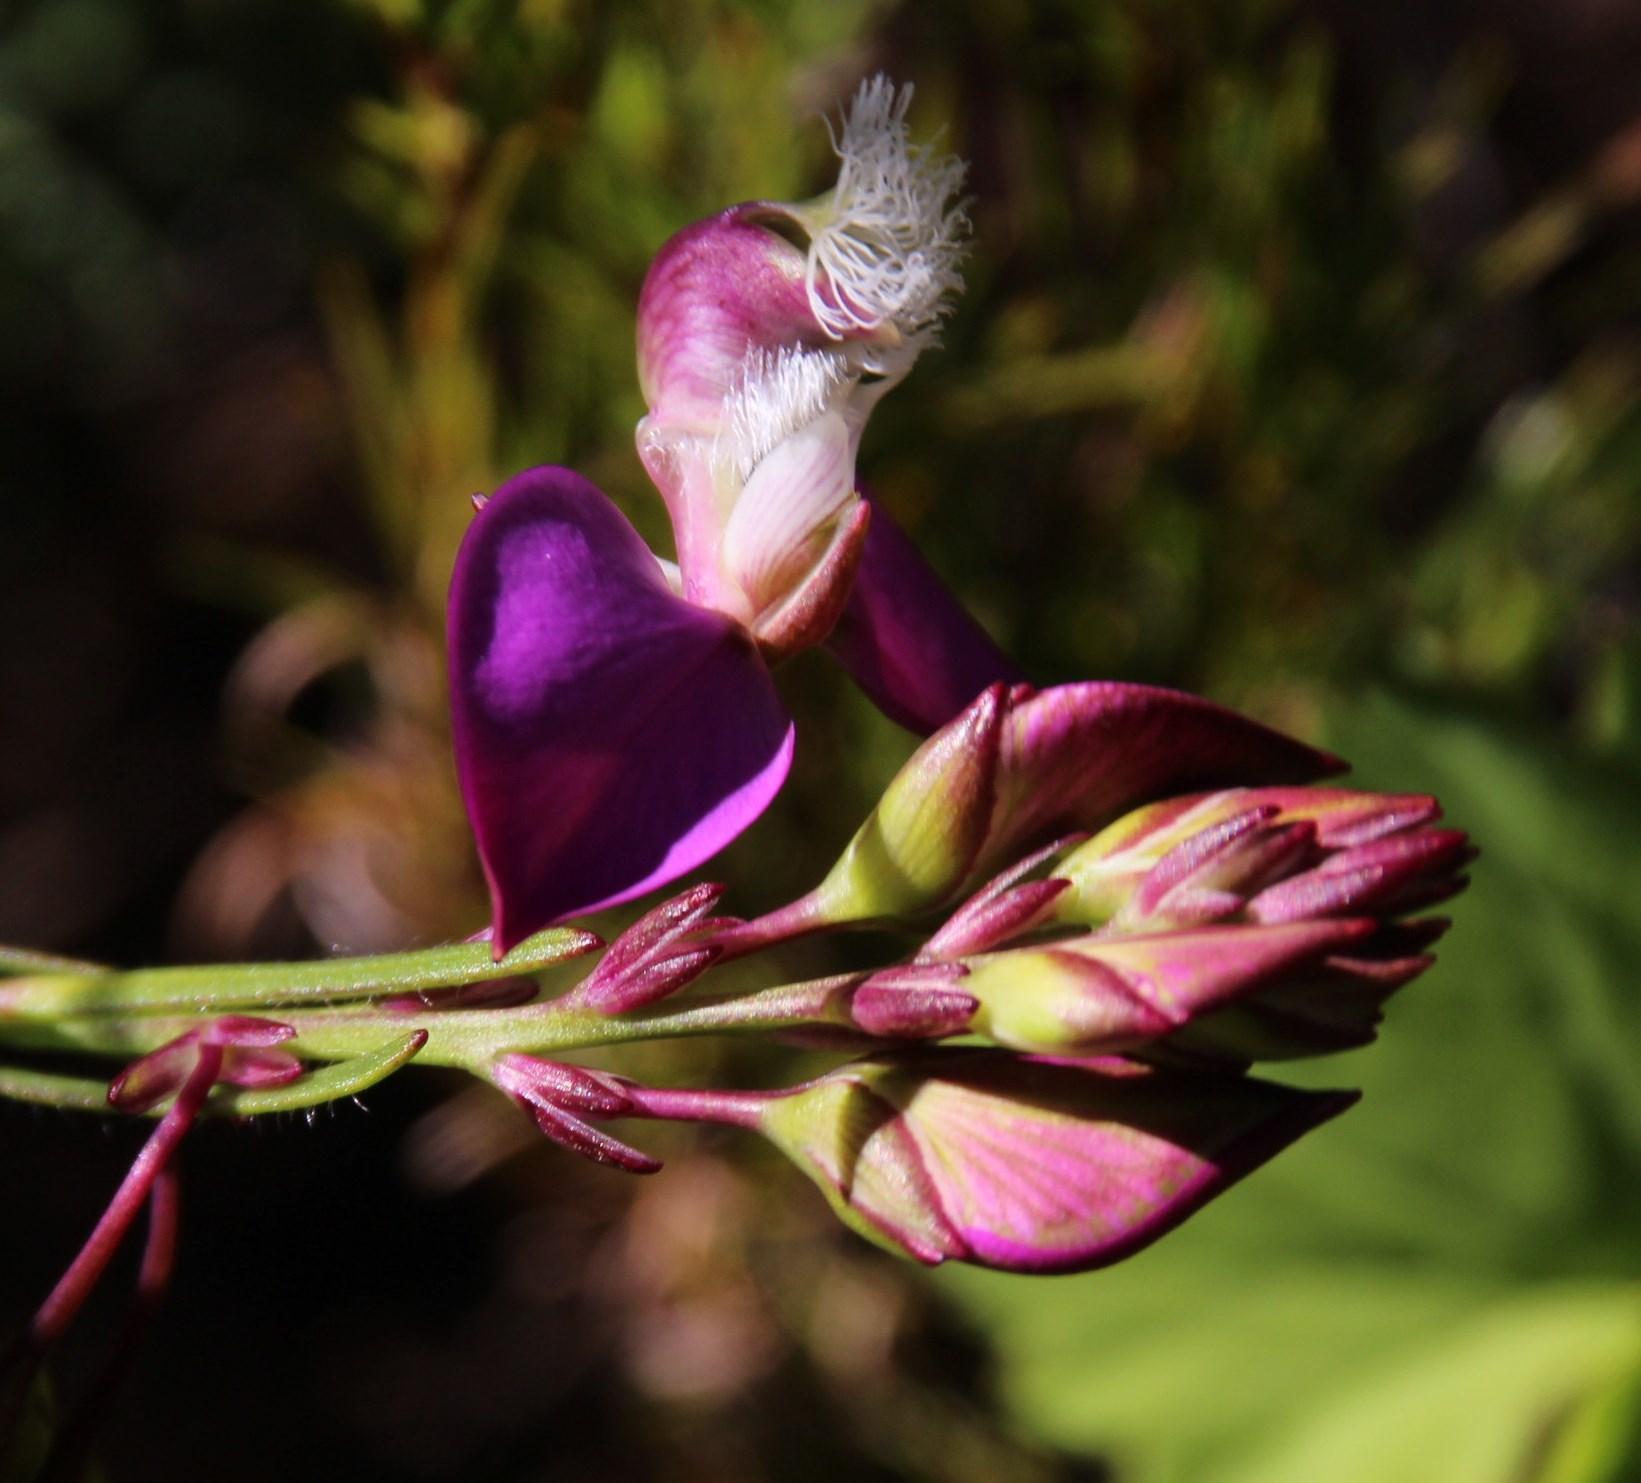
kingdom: Plantae
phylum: Tracheophyta
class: Magnoliopsida
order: Fabales
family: Polygalaceae
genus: Polygala
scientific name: Polygala bracteolata
